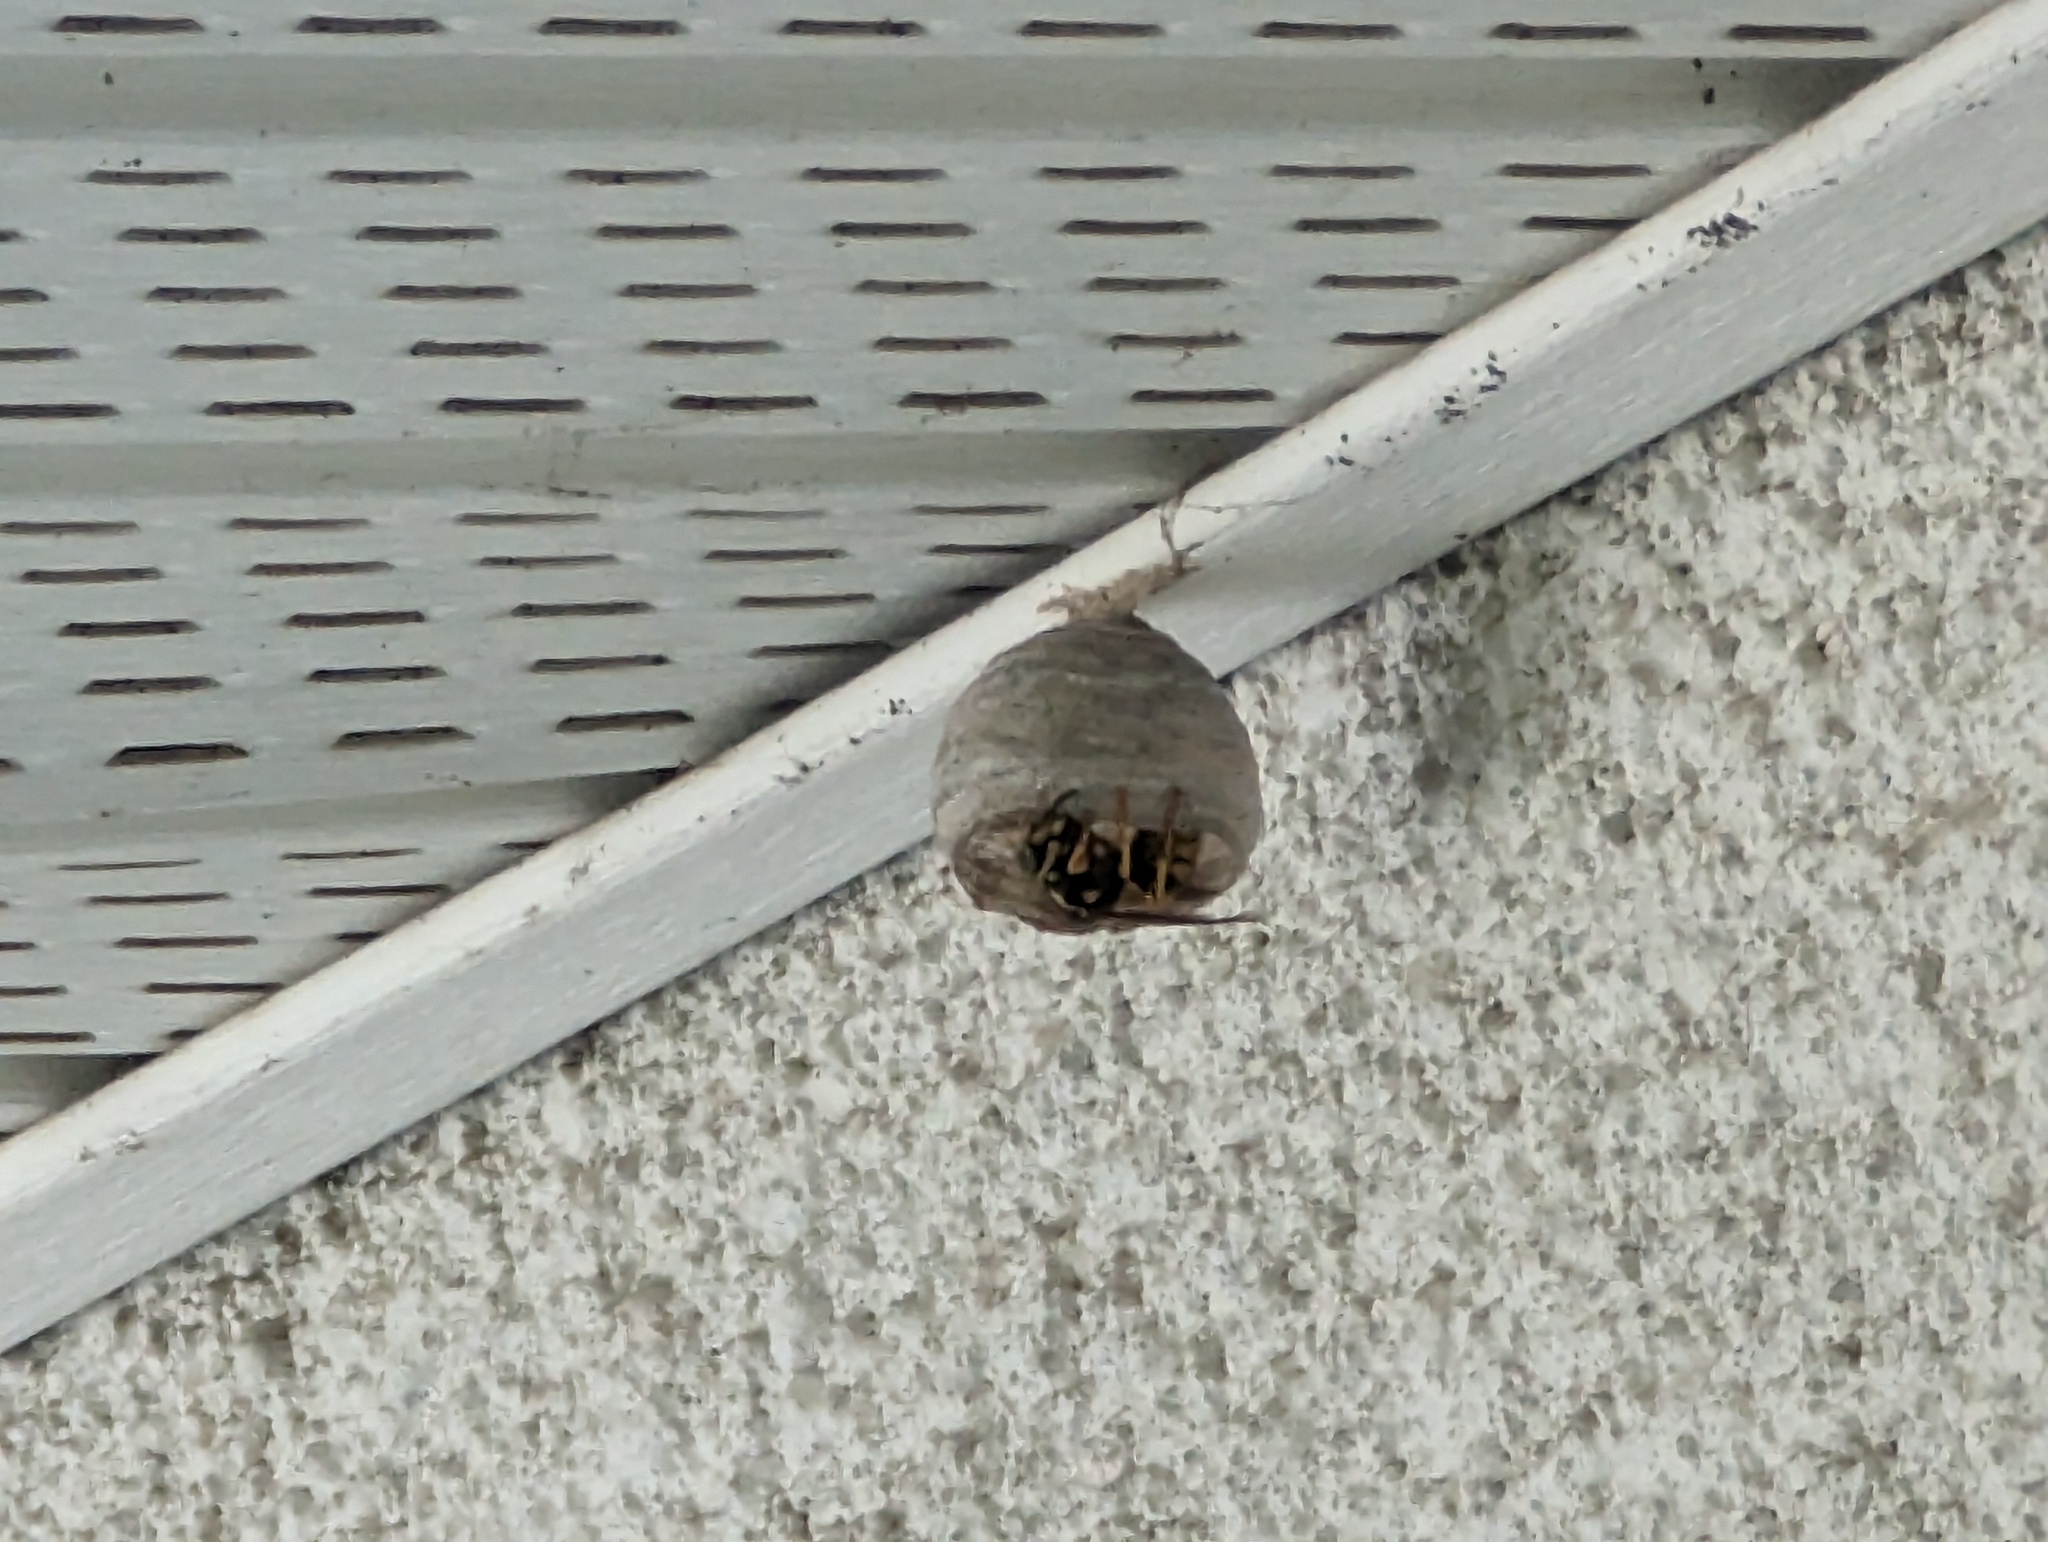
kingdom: Animalia
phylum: Arthropoda
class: Insecta
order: Hymenoptera
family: Vespidae
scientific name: Vespidae
